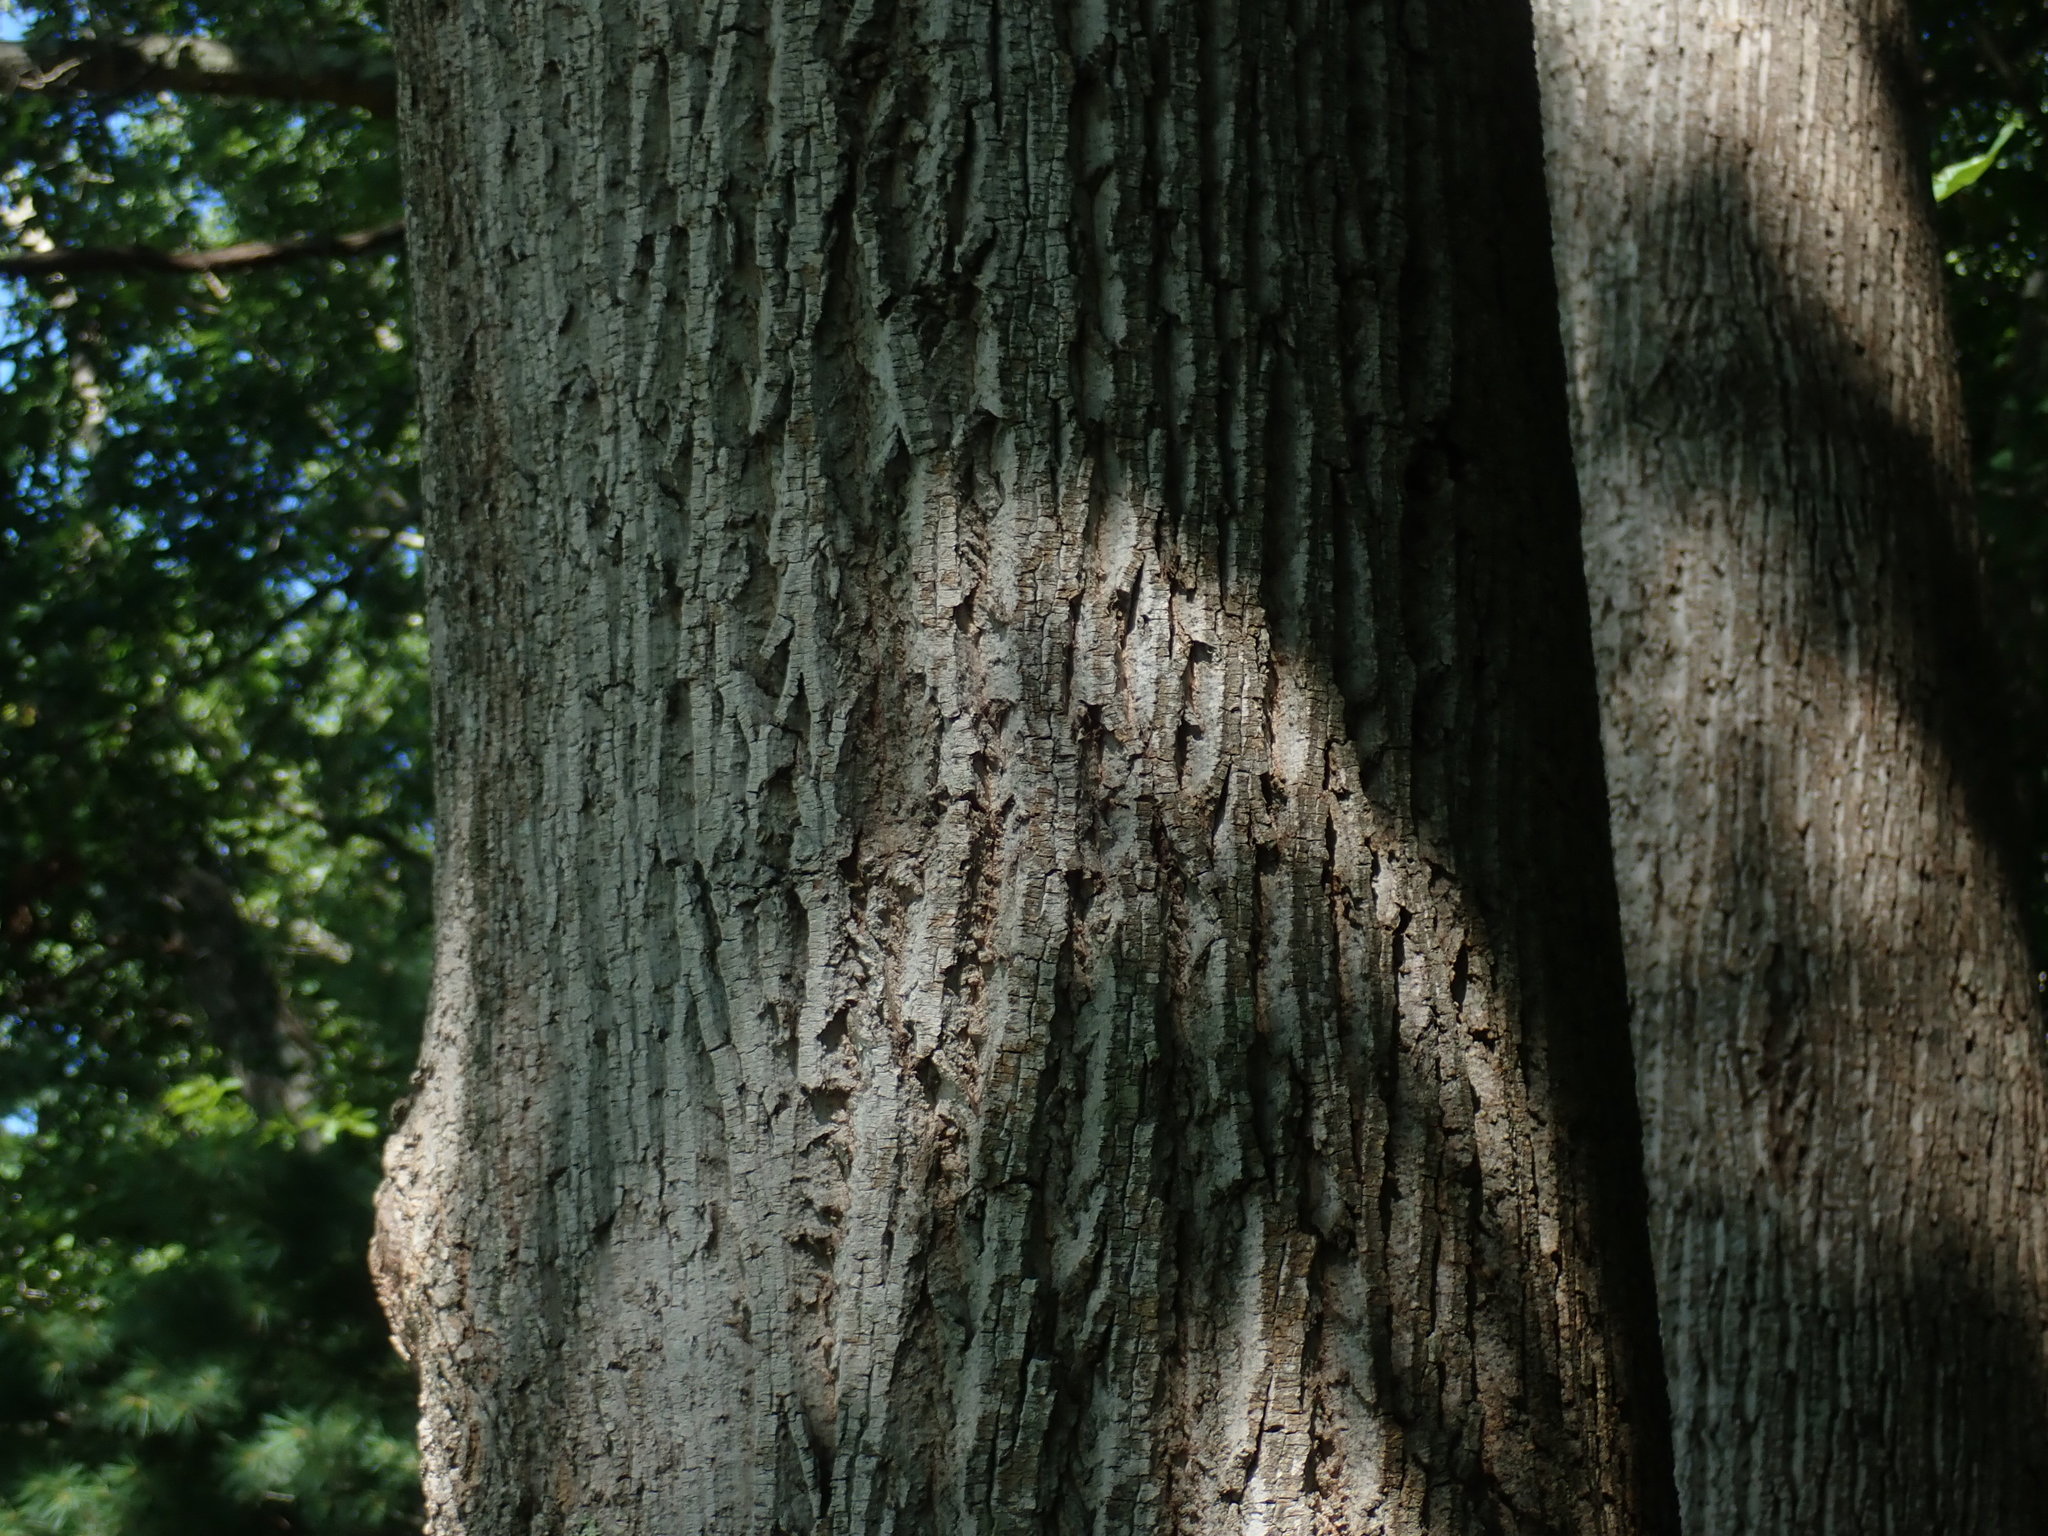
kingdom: Plantae
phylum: Tracheophyta
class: Magnoliopsida
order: Magnoliales
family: Magnoliaceae
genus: Liriodendron
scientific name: Liriodendron tulipifera
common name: Tulip tree
